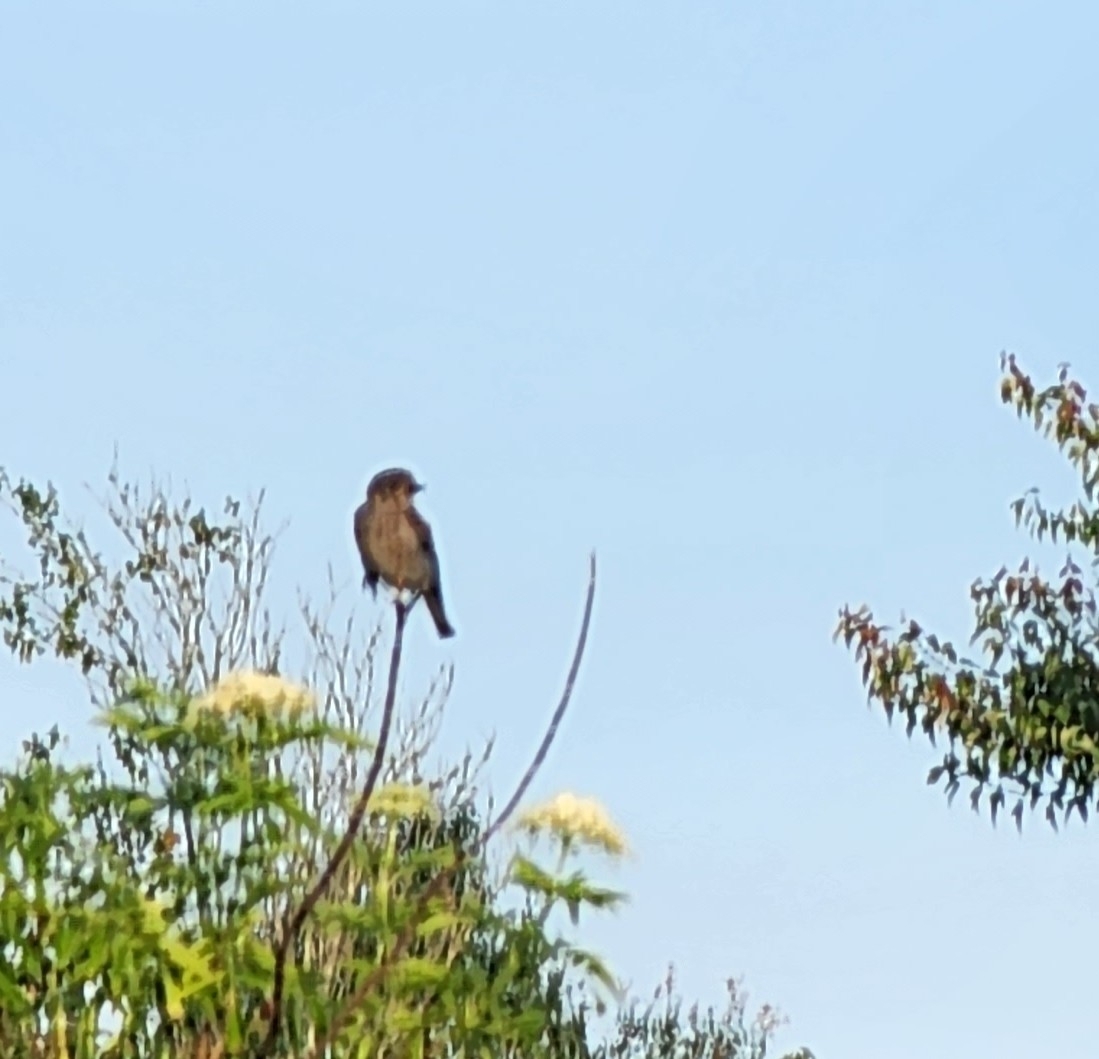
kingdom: Animalia
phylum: Chordata
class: Aves
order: Passeriformes
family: Turdidae
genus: Sialia
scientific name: Sialia sialis
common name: Eastern bluebird
